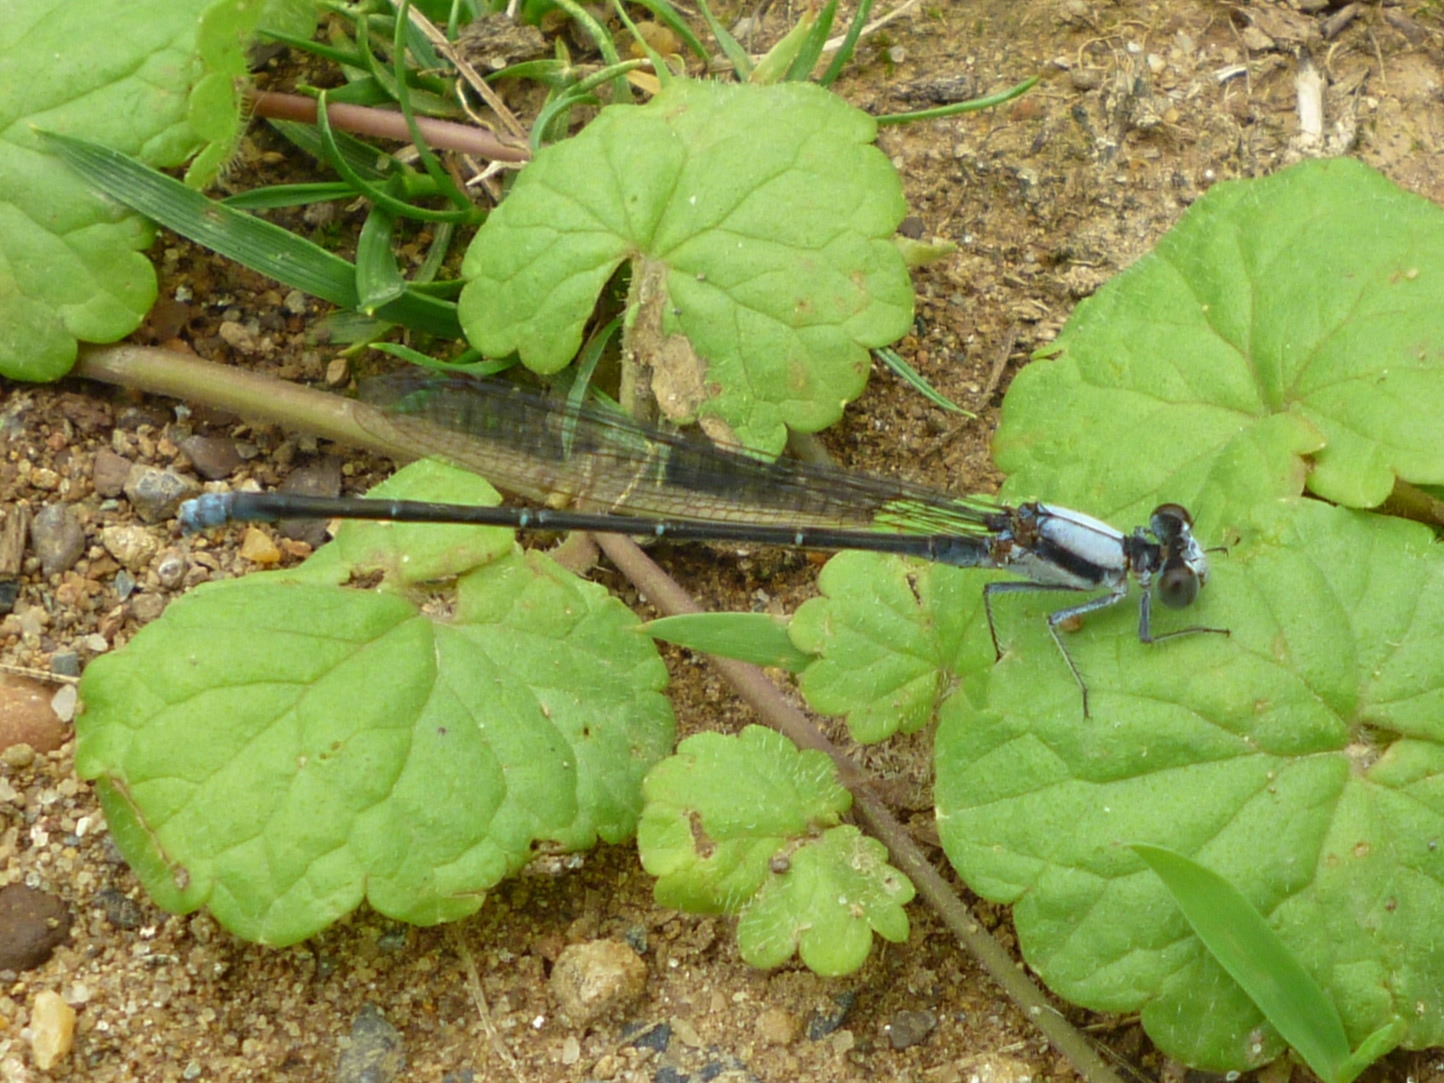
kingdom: Animalia
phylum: Arthropoda
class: Insecta
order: Odonata
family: Coenagrionidae
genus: Argia
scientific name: Argia moesta
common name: Powdered dancer
